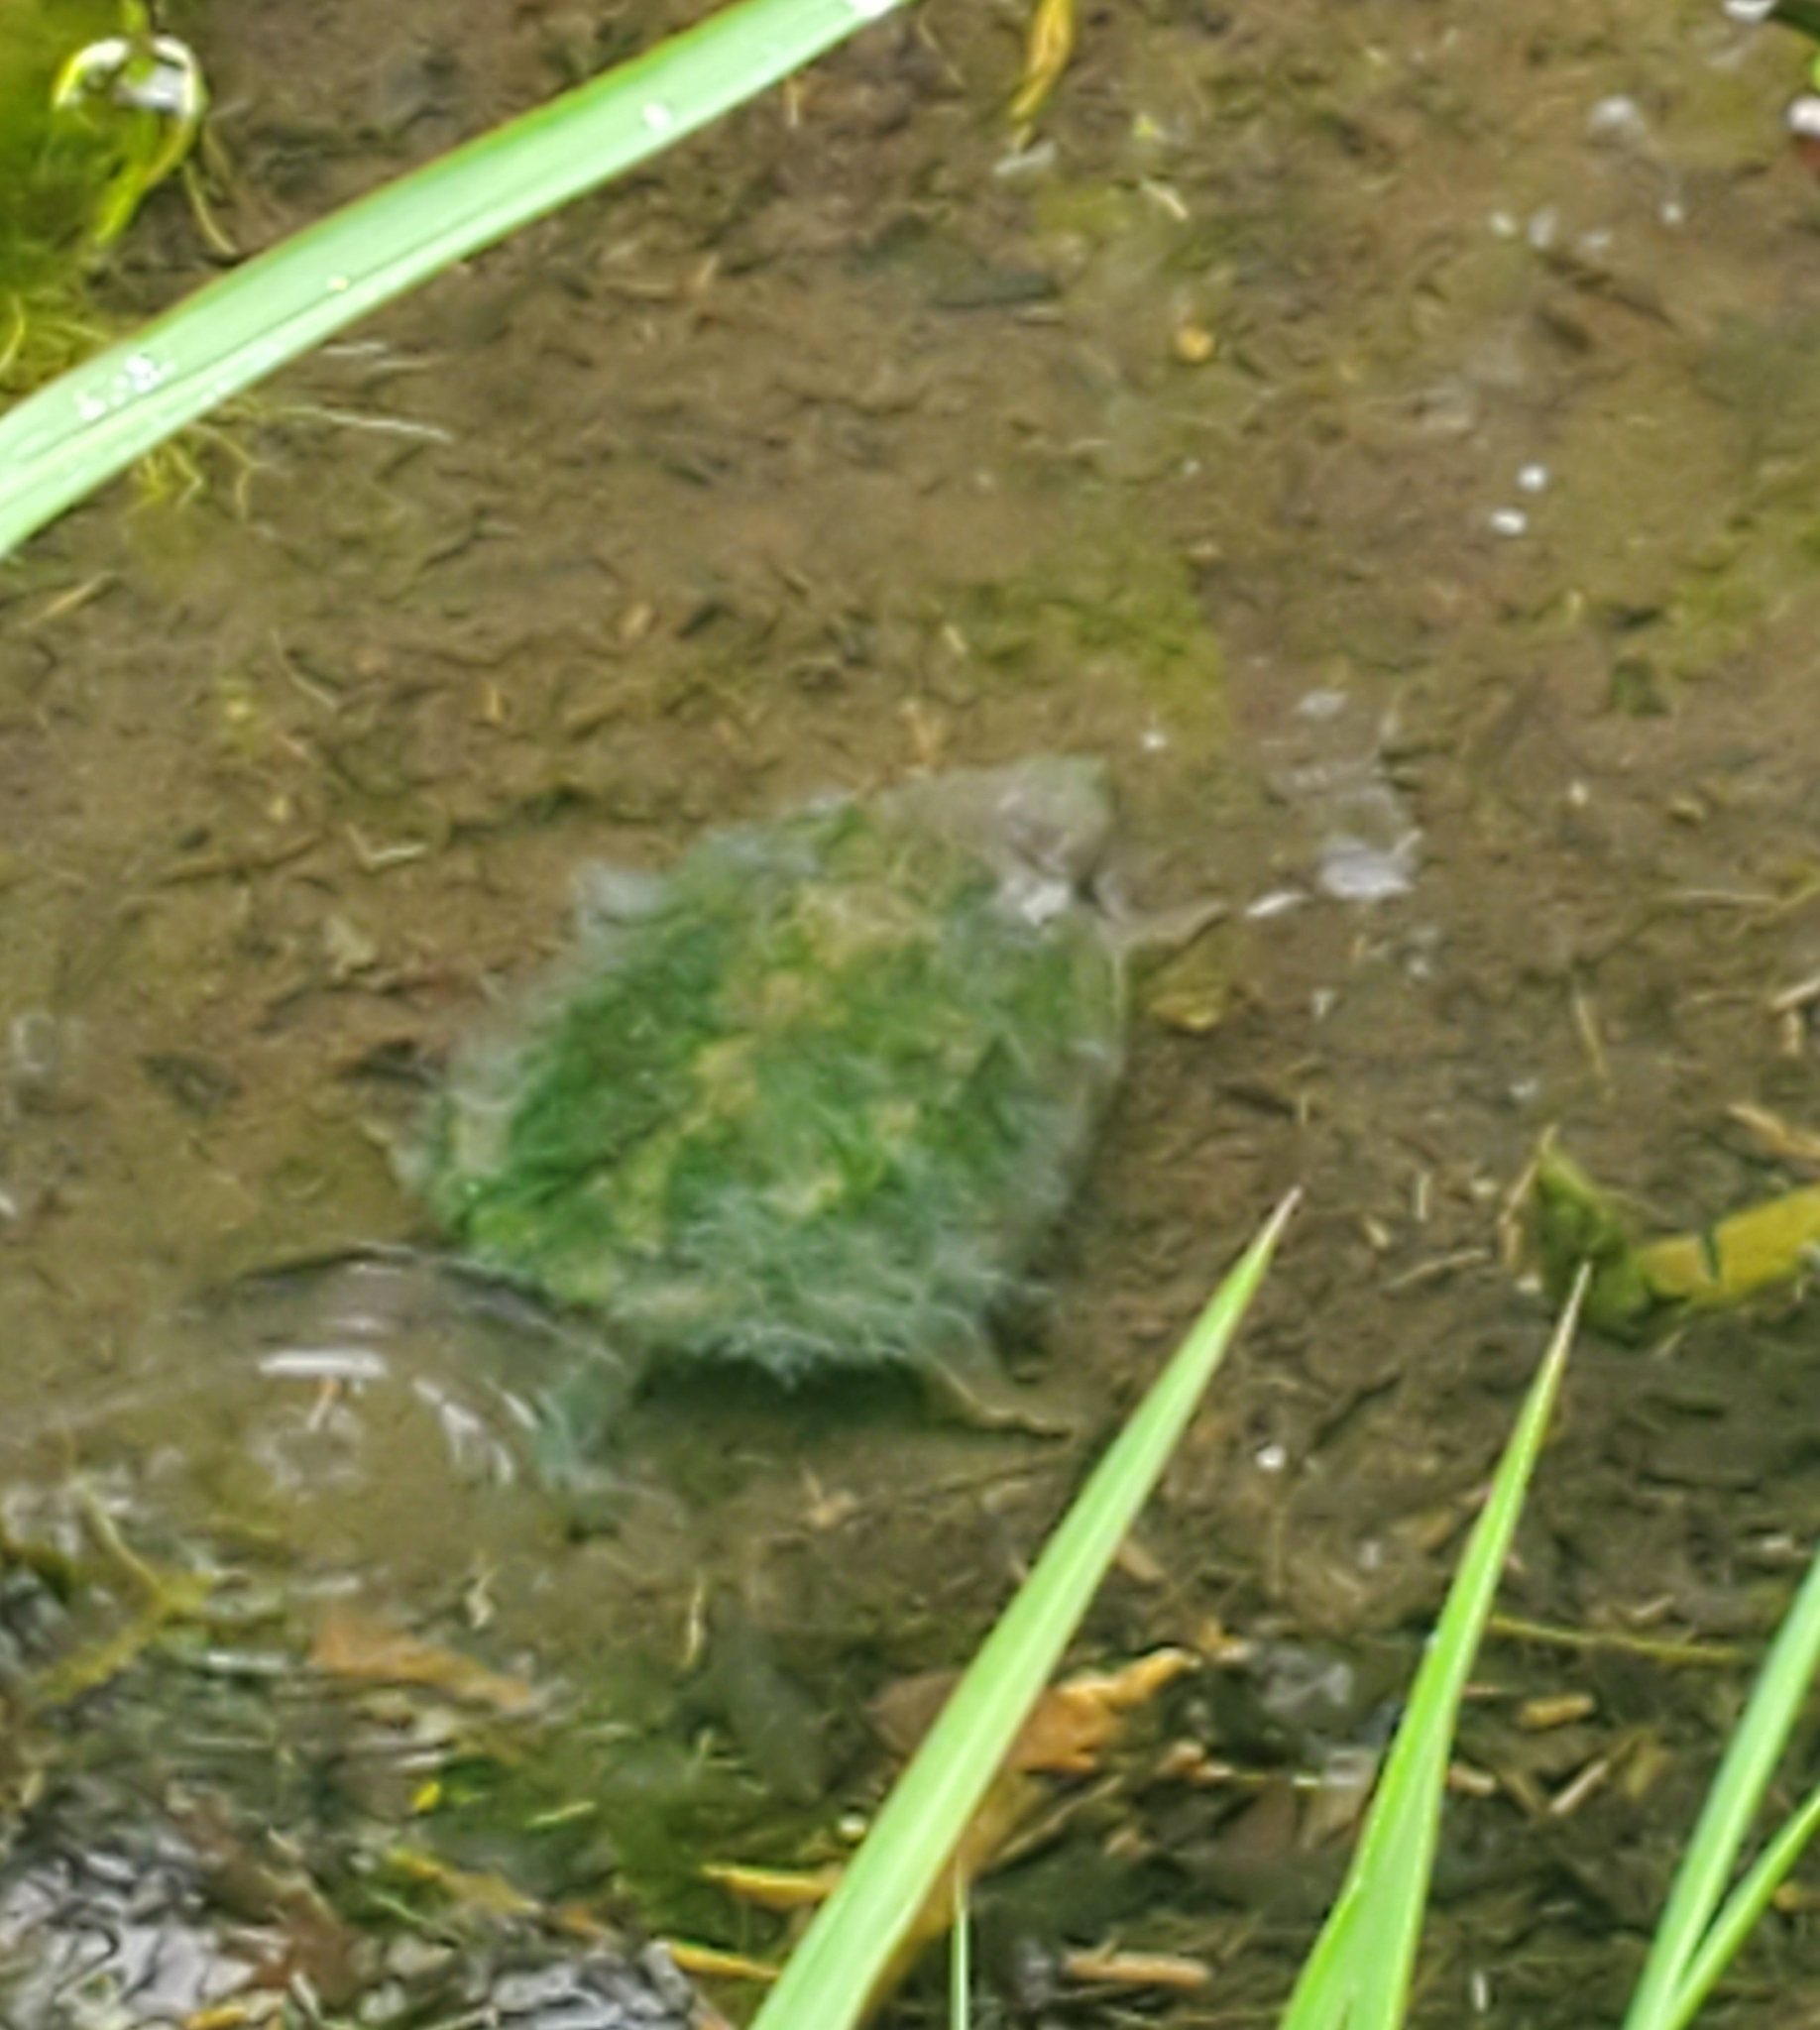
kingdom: Animalia
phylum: Chordata
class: Testudines
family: Chelydridae
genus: Chelydra
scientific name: Chelydra serpentina
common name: Common snapping turtle
